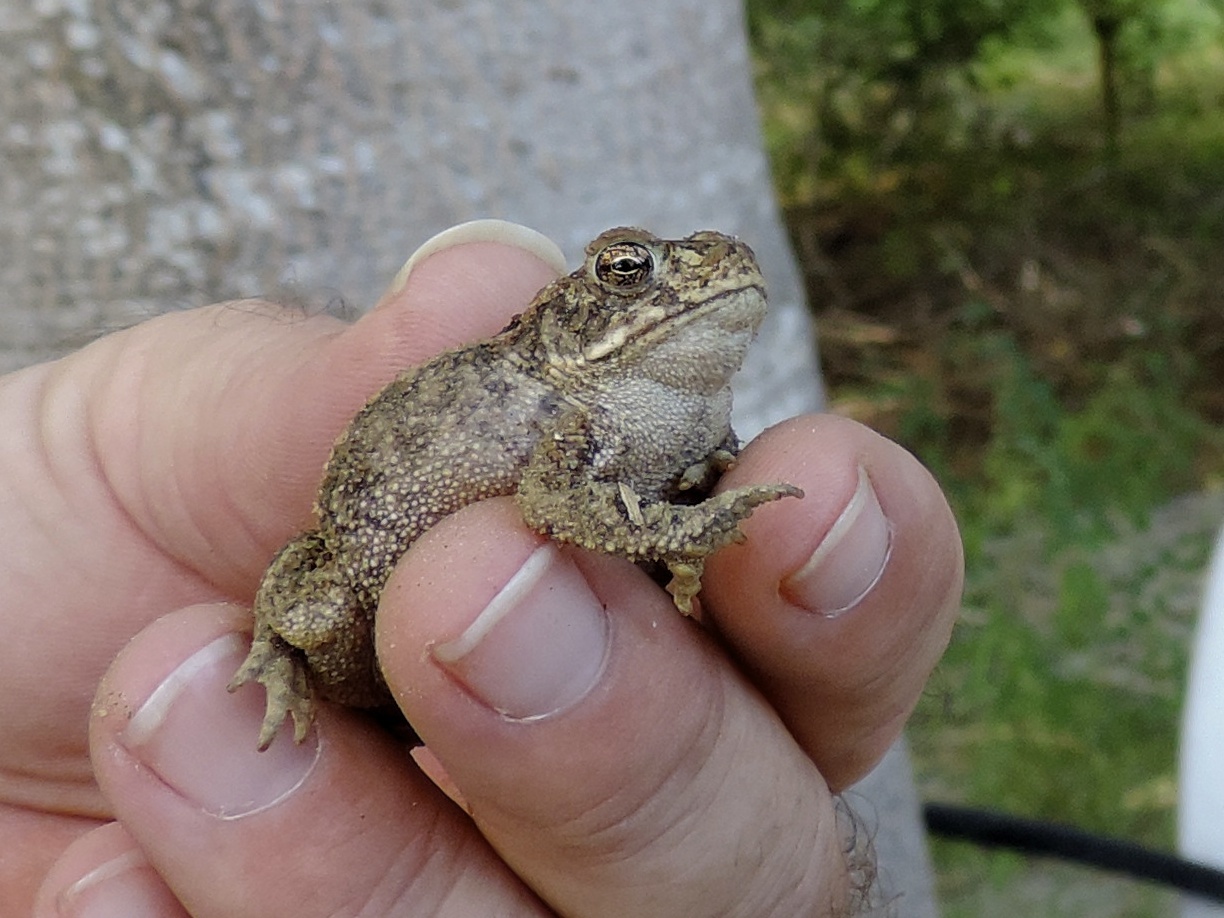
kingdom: Animalia
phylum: Chordata
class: Amphibia
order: Anura
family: Bufonidae
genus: Incilius
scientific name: Incilius mazatlanensis
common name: Sinaloa toad
